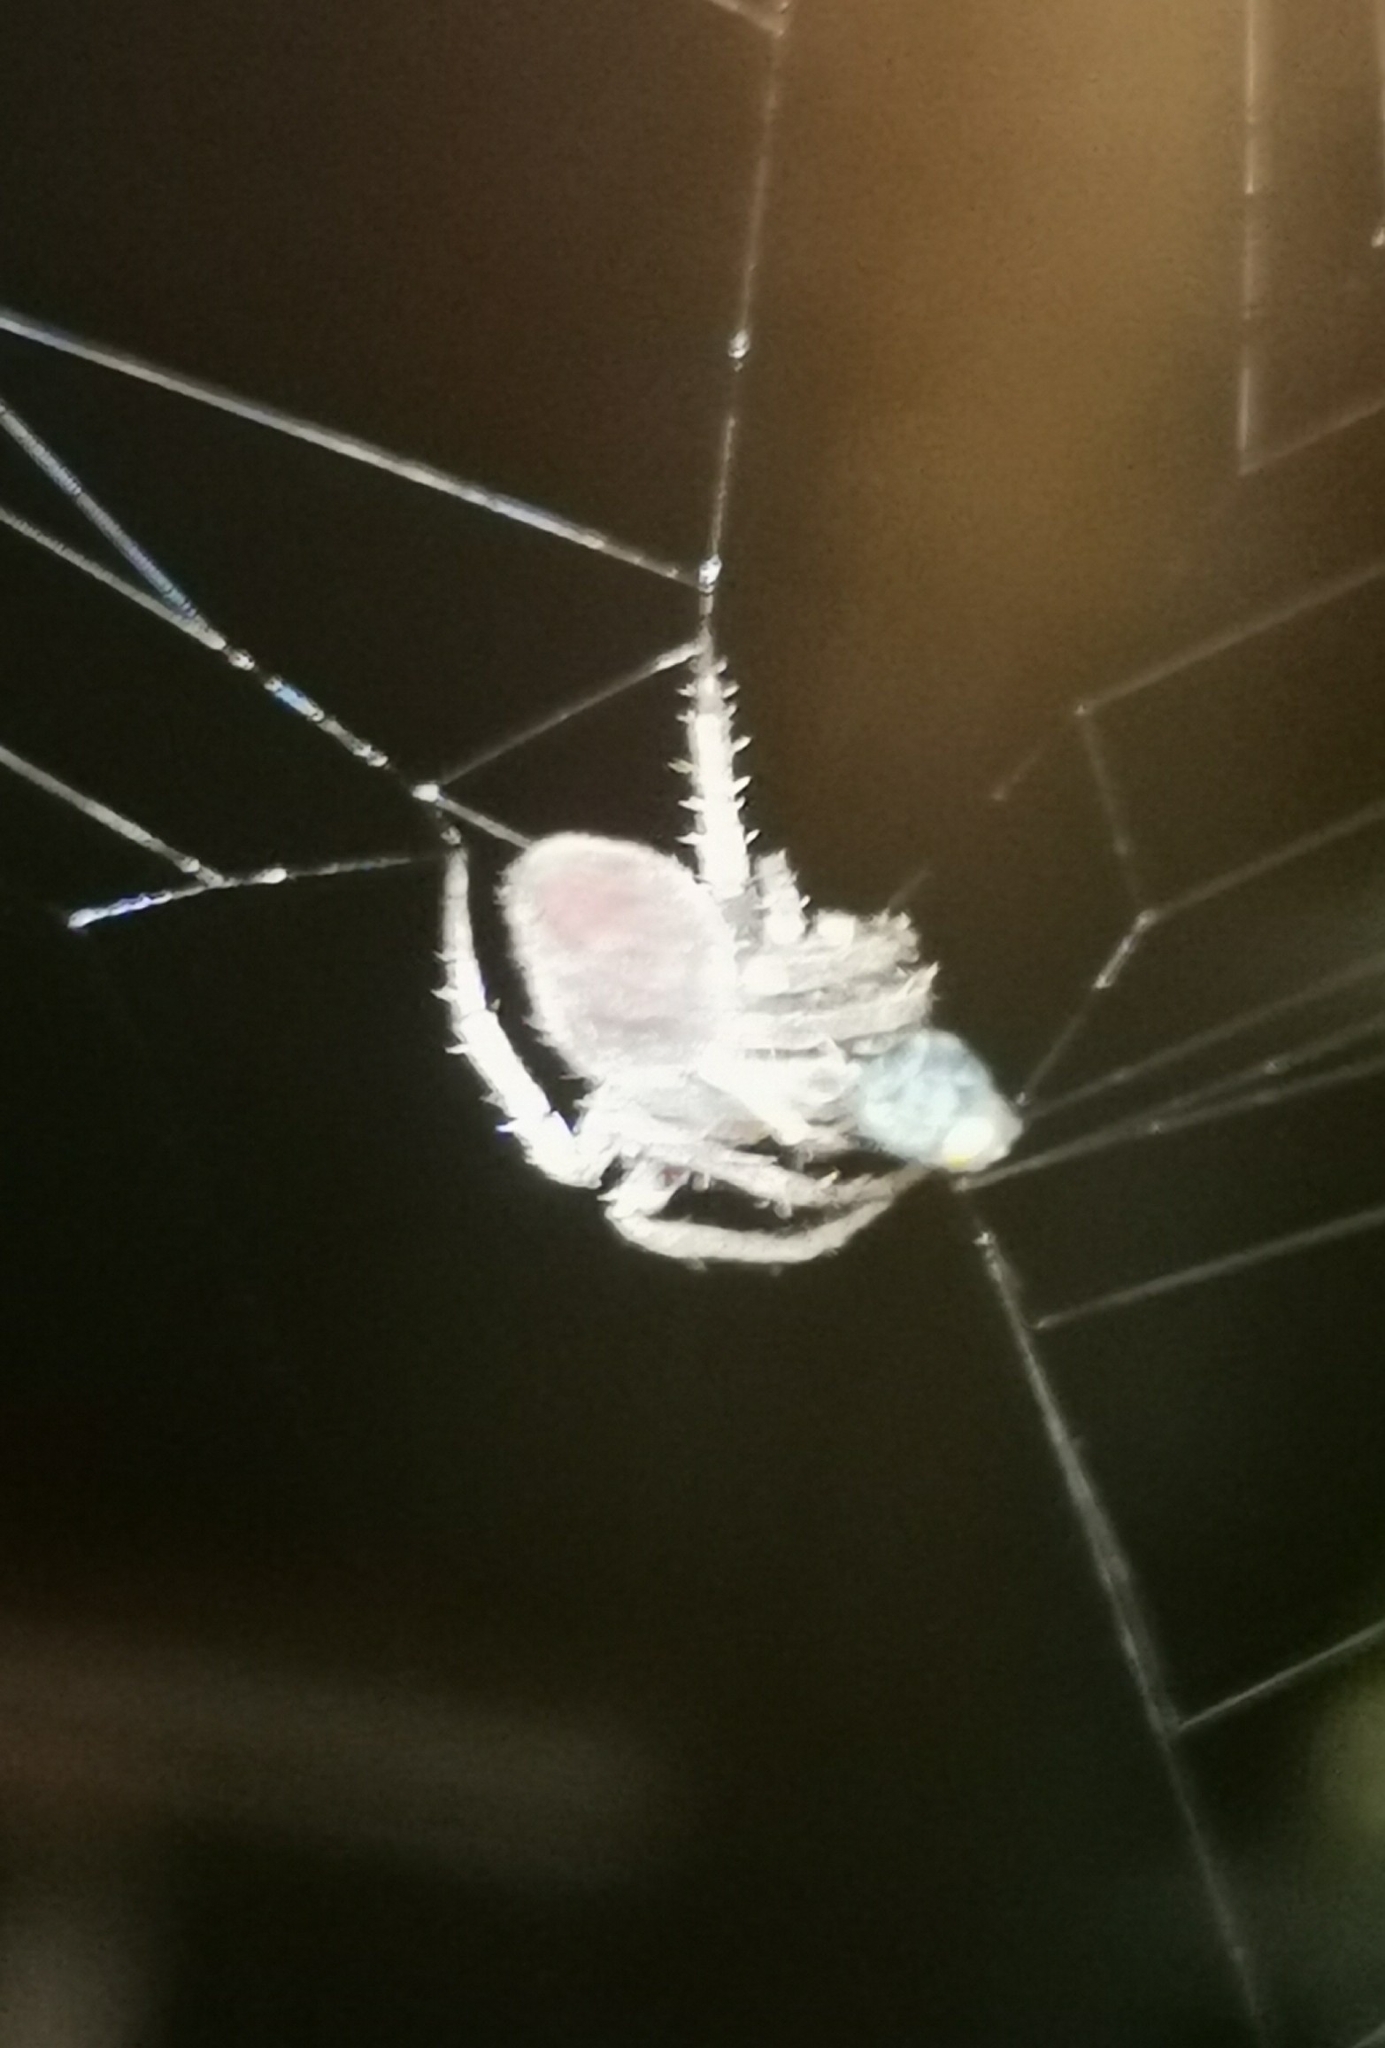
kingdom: Animalia
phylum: Arthropoda
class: Arachnida
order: Araneae
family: Araneidae
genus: Neoscona
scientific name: Neoscona subfusca
